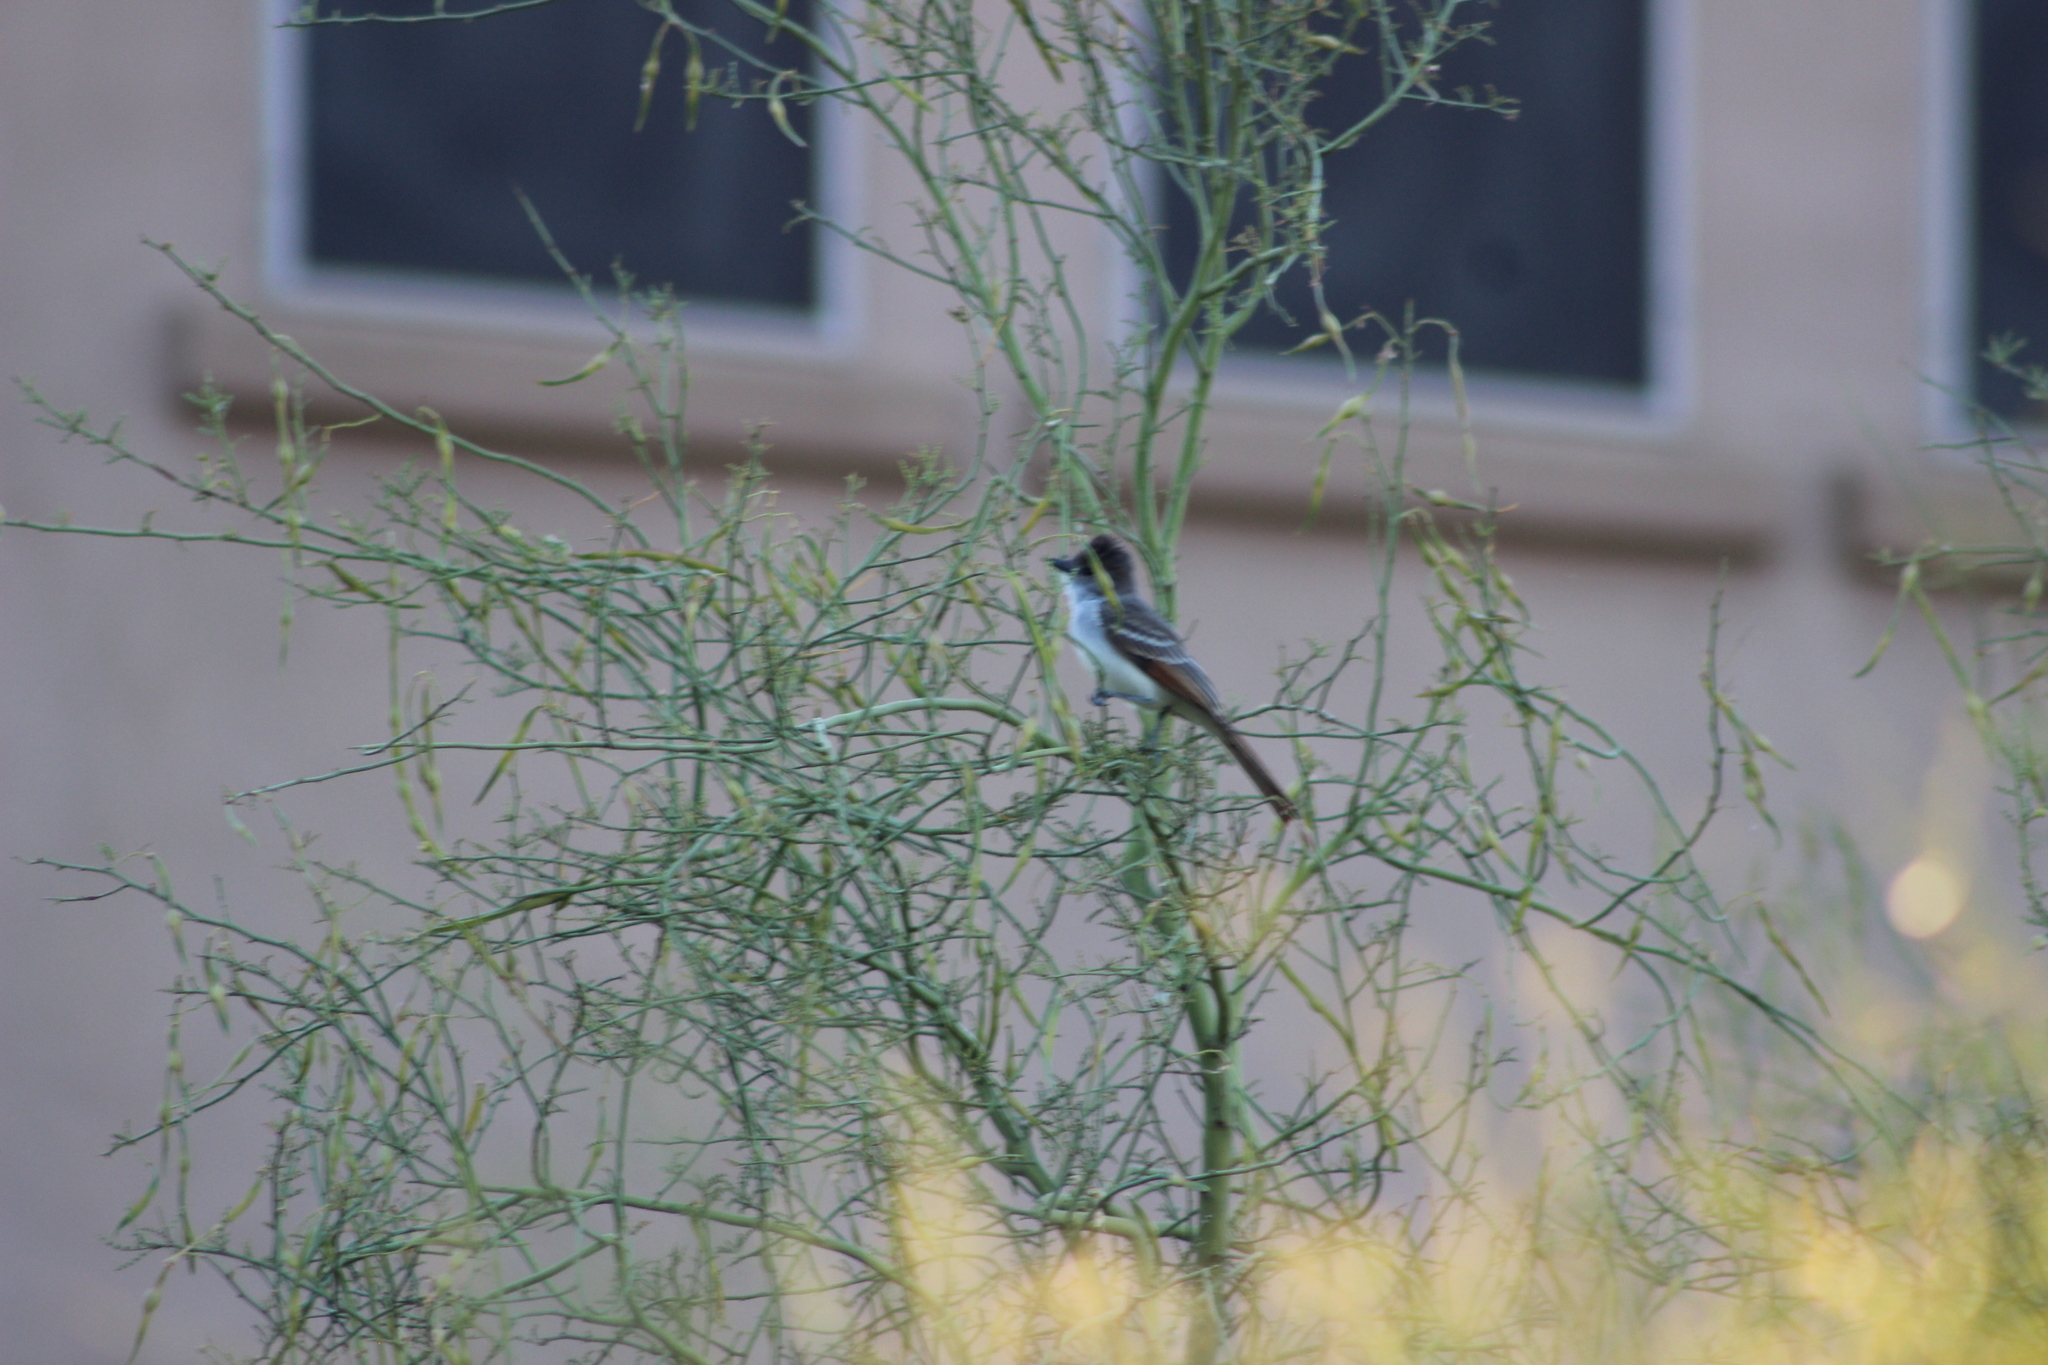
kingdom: Animalia
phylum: Chordata
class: Aves
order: Passeriformes
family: Tyrannidae
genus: Myiarchus
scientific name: Myiarchus
